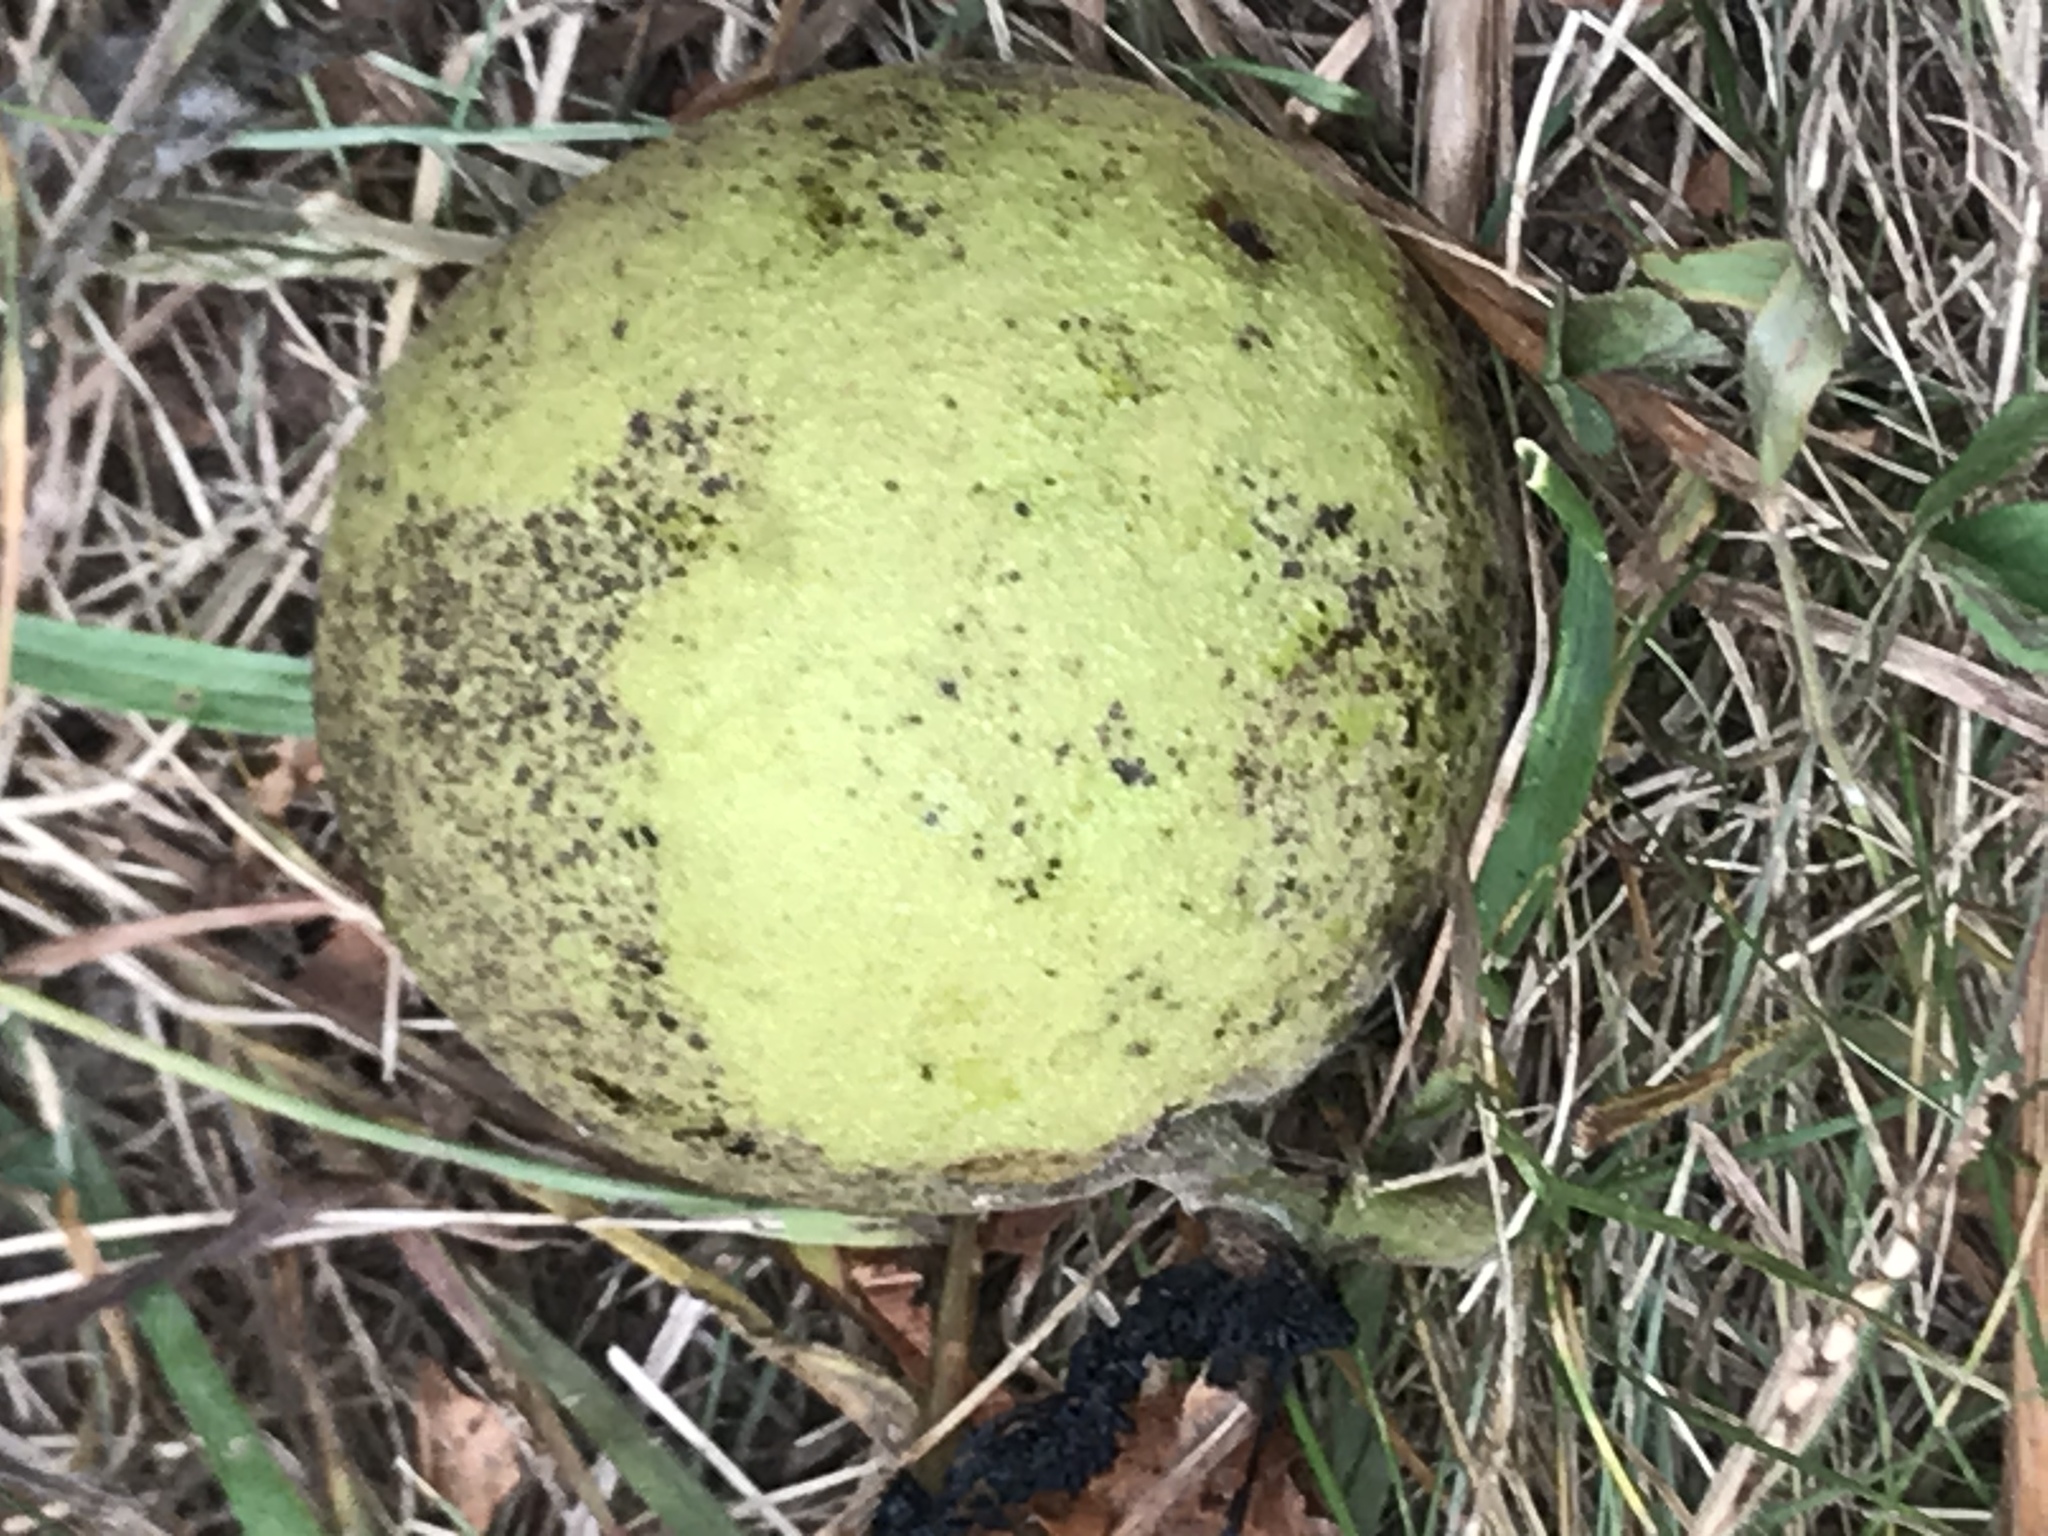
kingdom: Plantae
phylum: Tracheophyta
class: Magnoliopsida
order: Fagales
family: Juglandaceae
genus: Juglans
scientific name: Juglans nigra
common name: Black walnut
